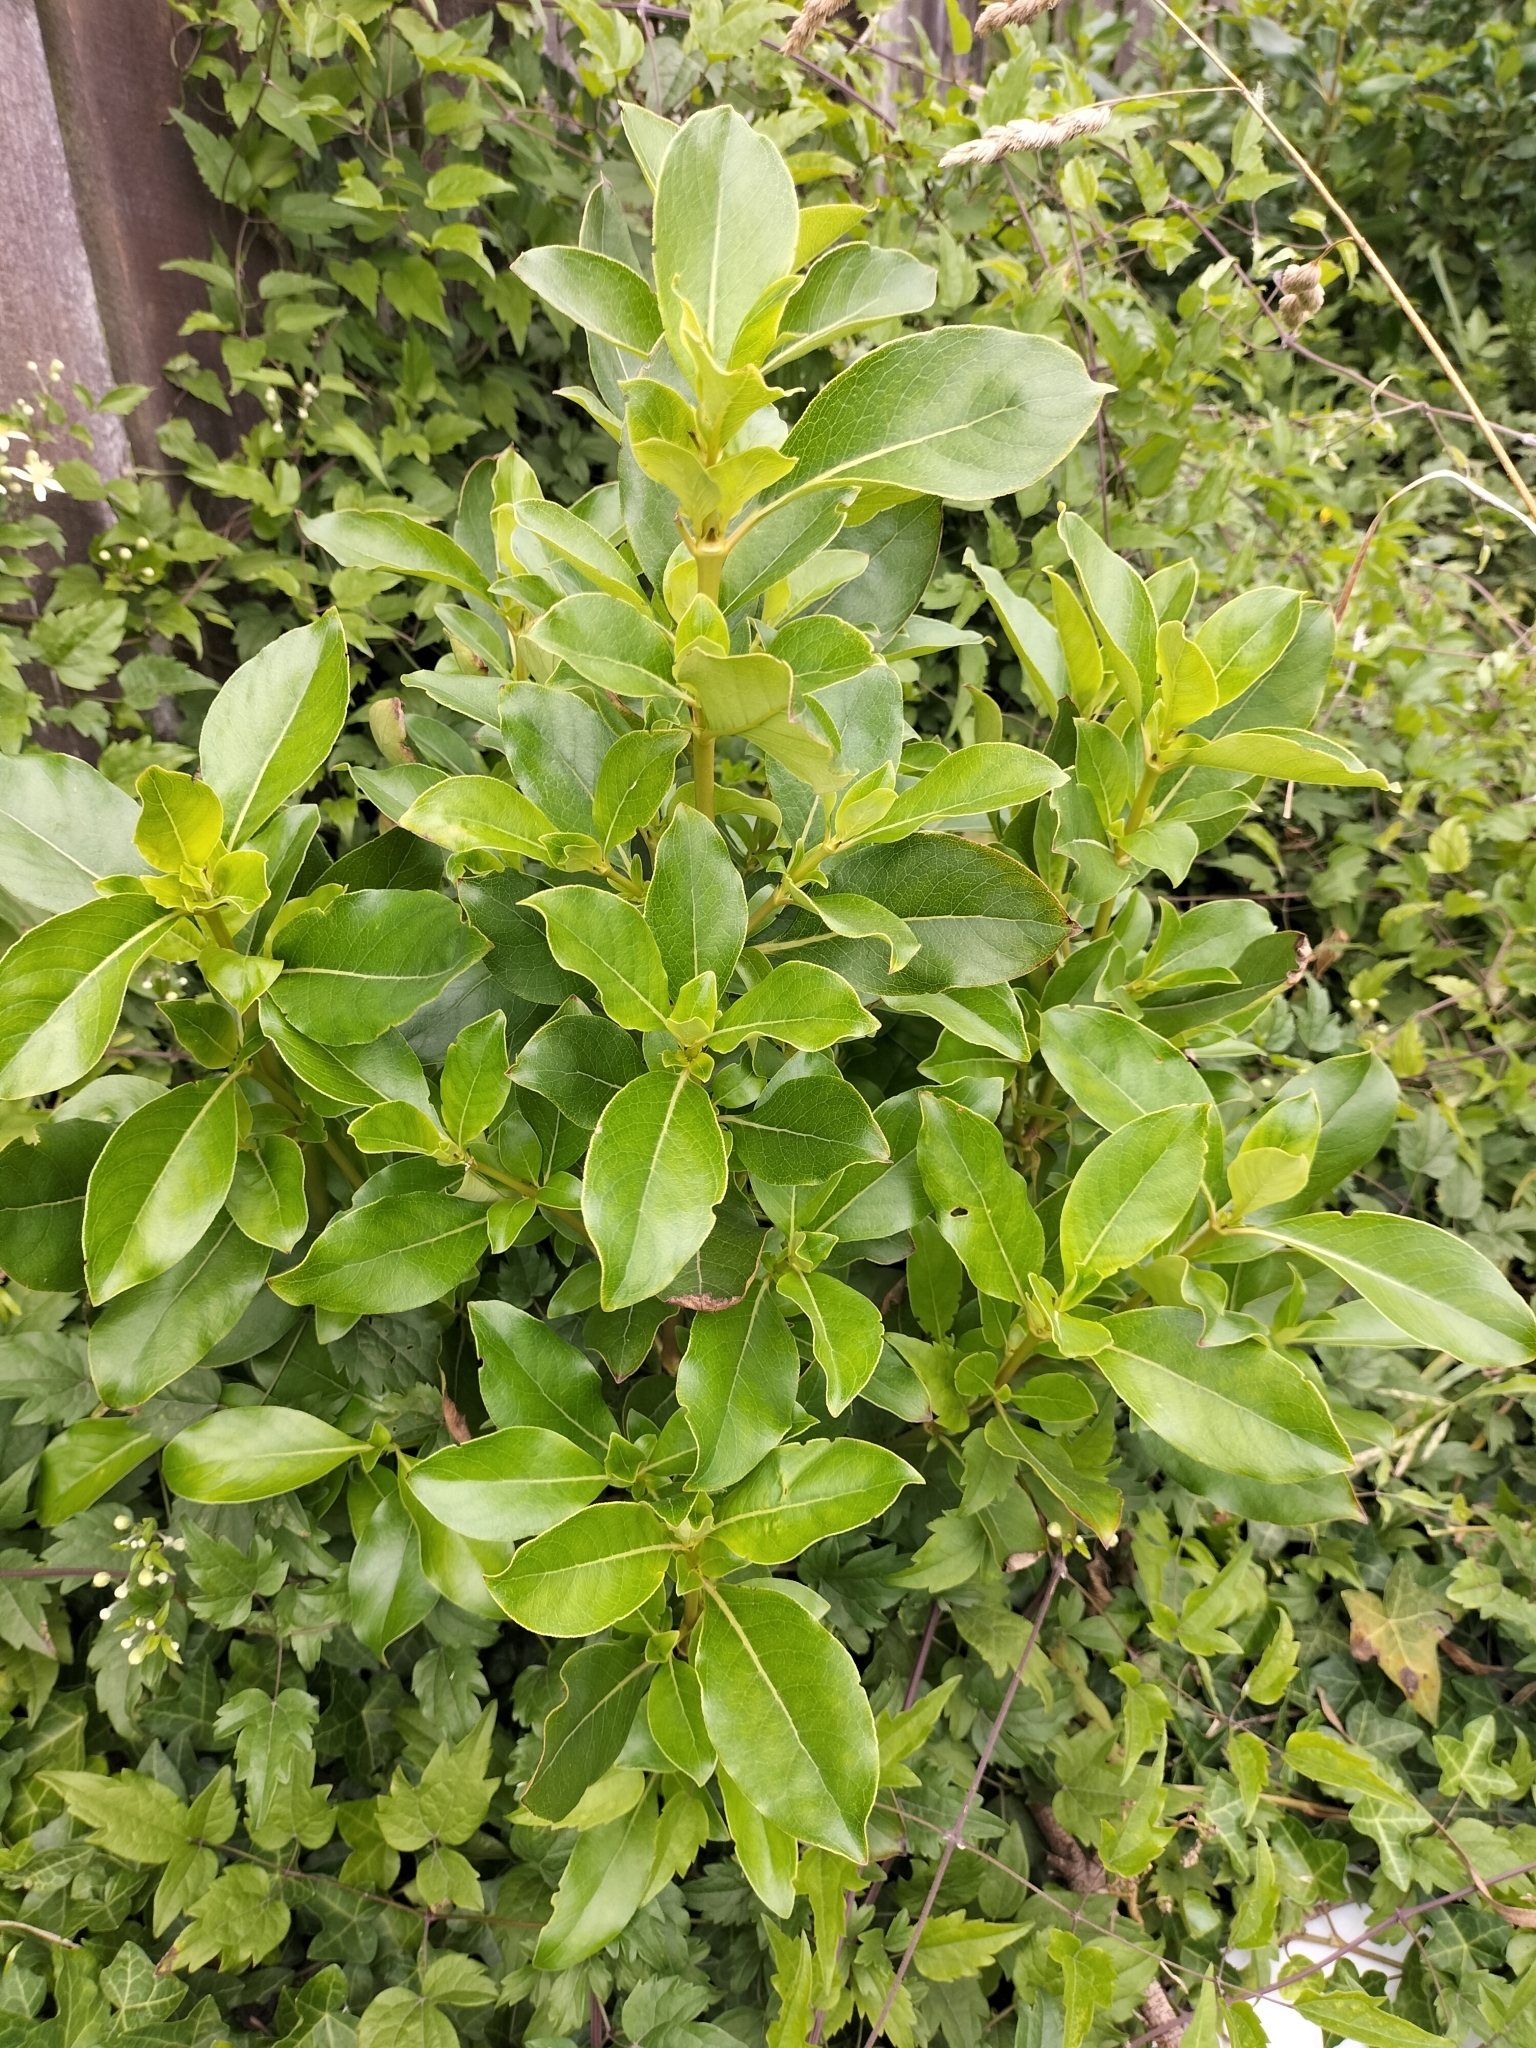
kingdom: Plantae
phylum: Tracheophyta
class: Magnoliopsida
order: Gentianales
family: Rubiaceae
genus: Coprosma
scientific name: Coprosma robusta
